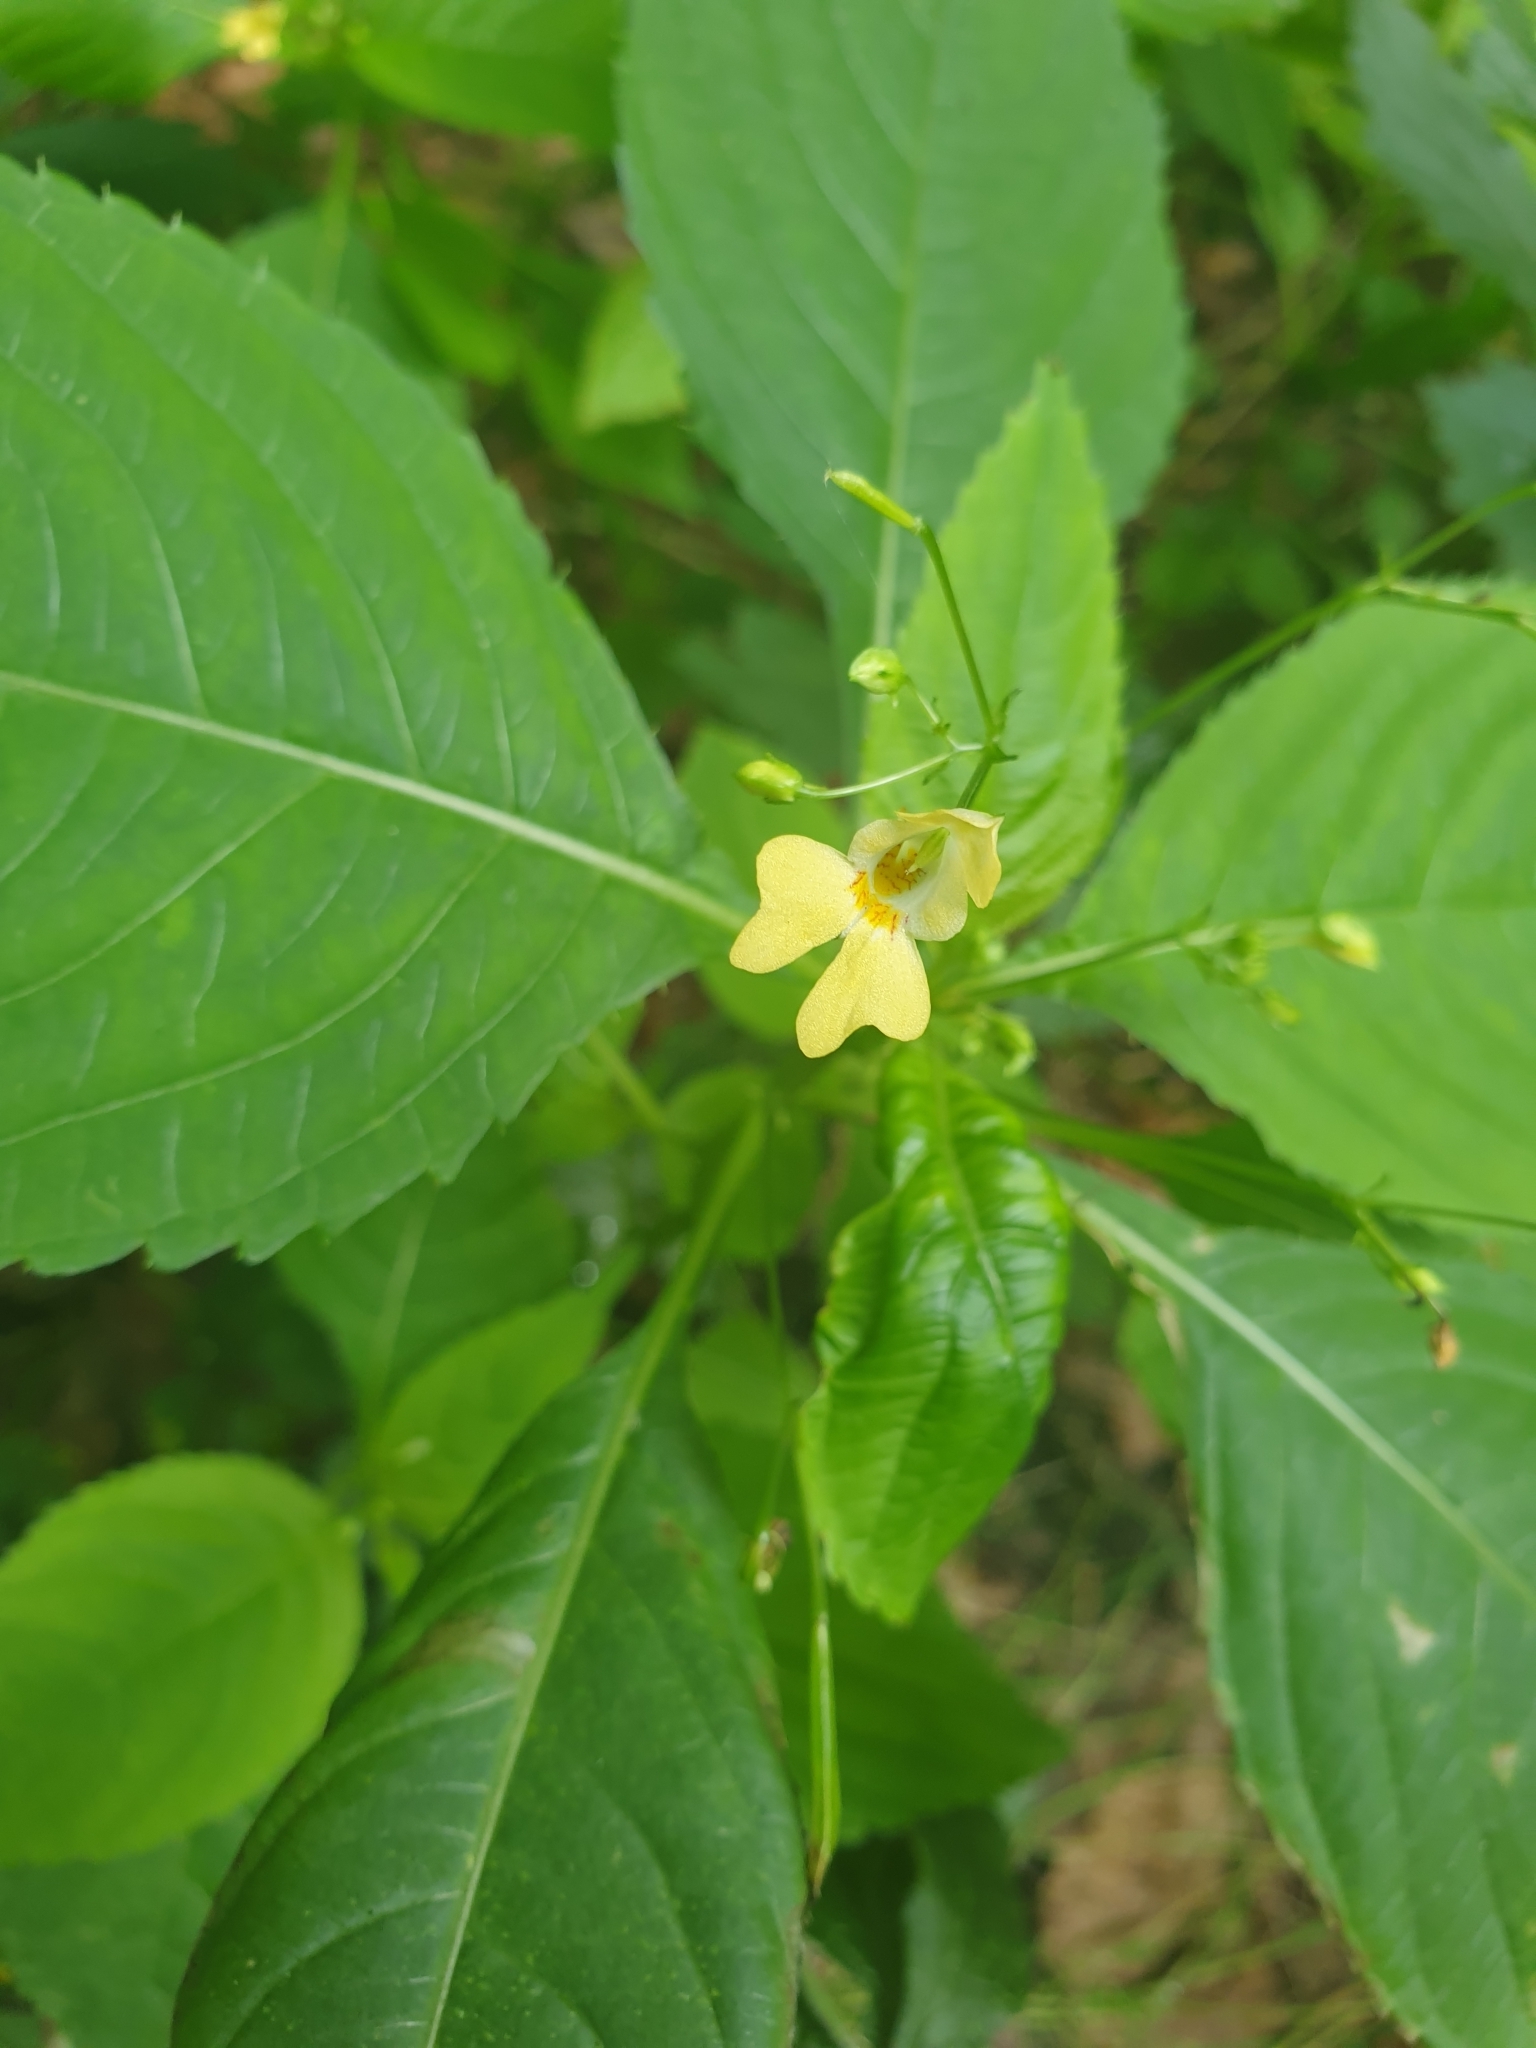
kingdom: Plantae
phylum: Tracheophyta
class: Magnoliopsida
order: Ericales
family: Balsaminaceae
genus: Impatiens
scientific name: Impatiens parviflora
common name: Small balsam
